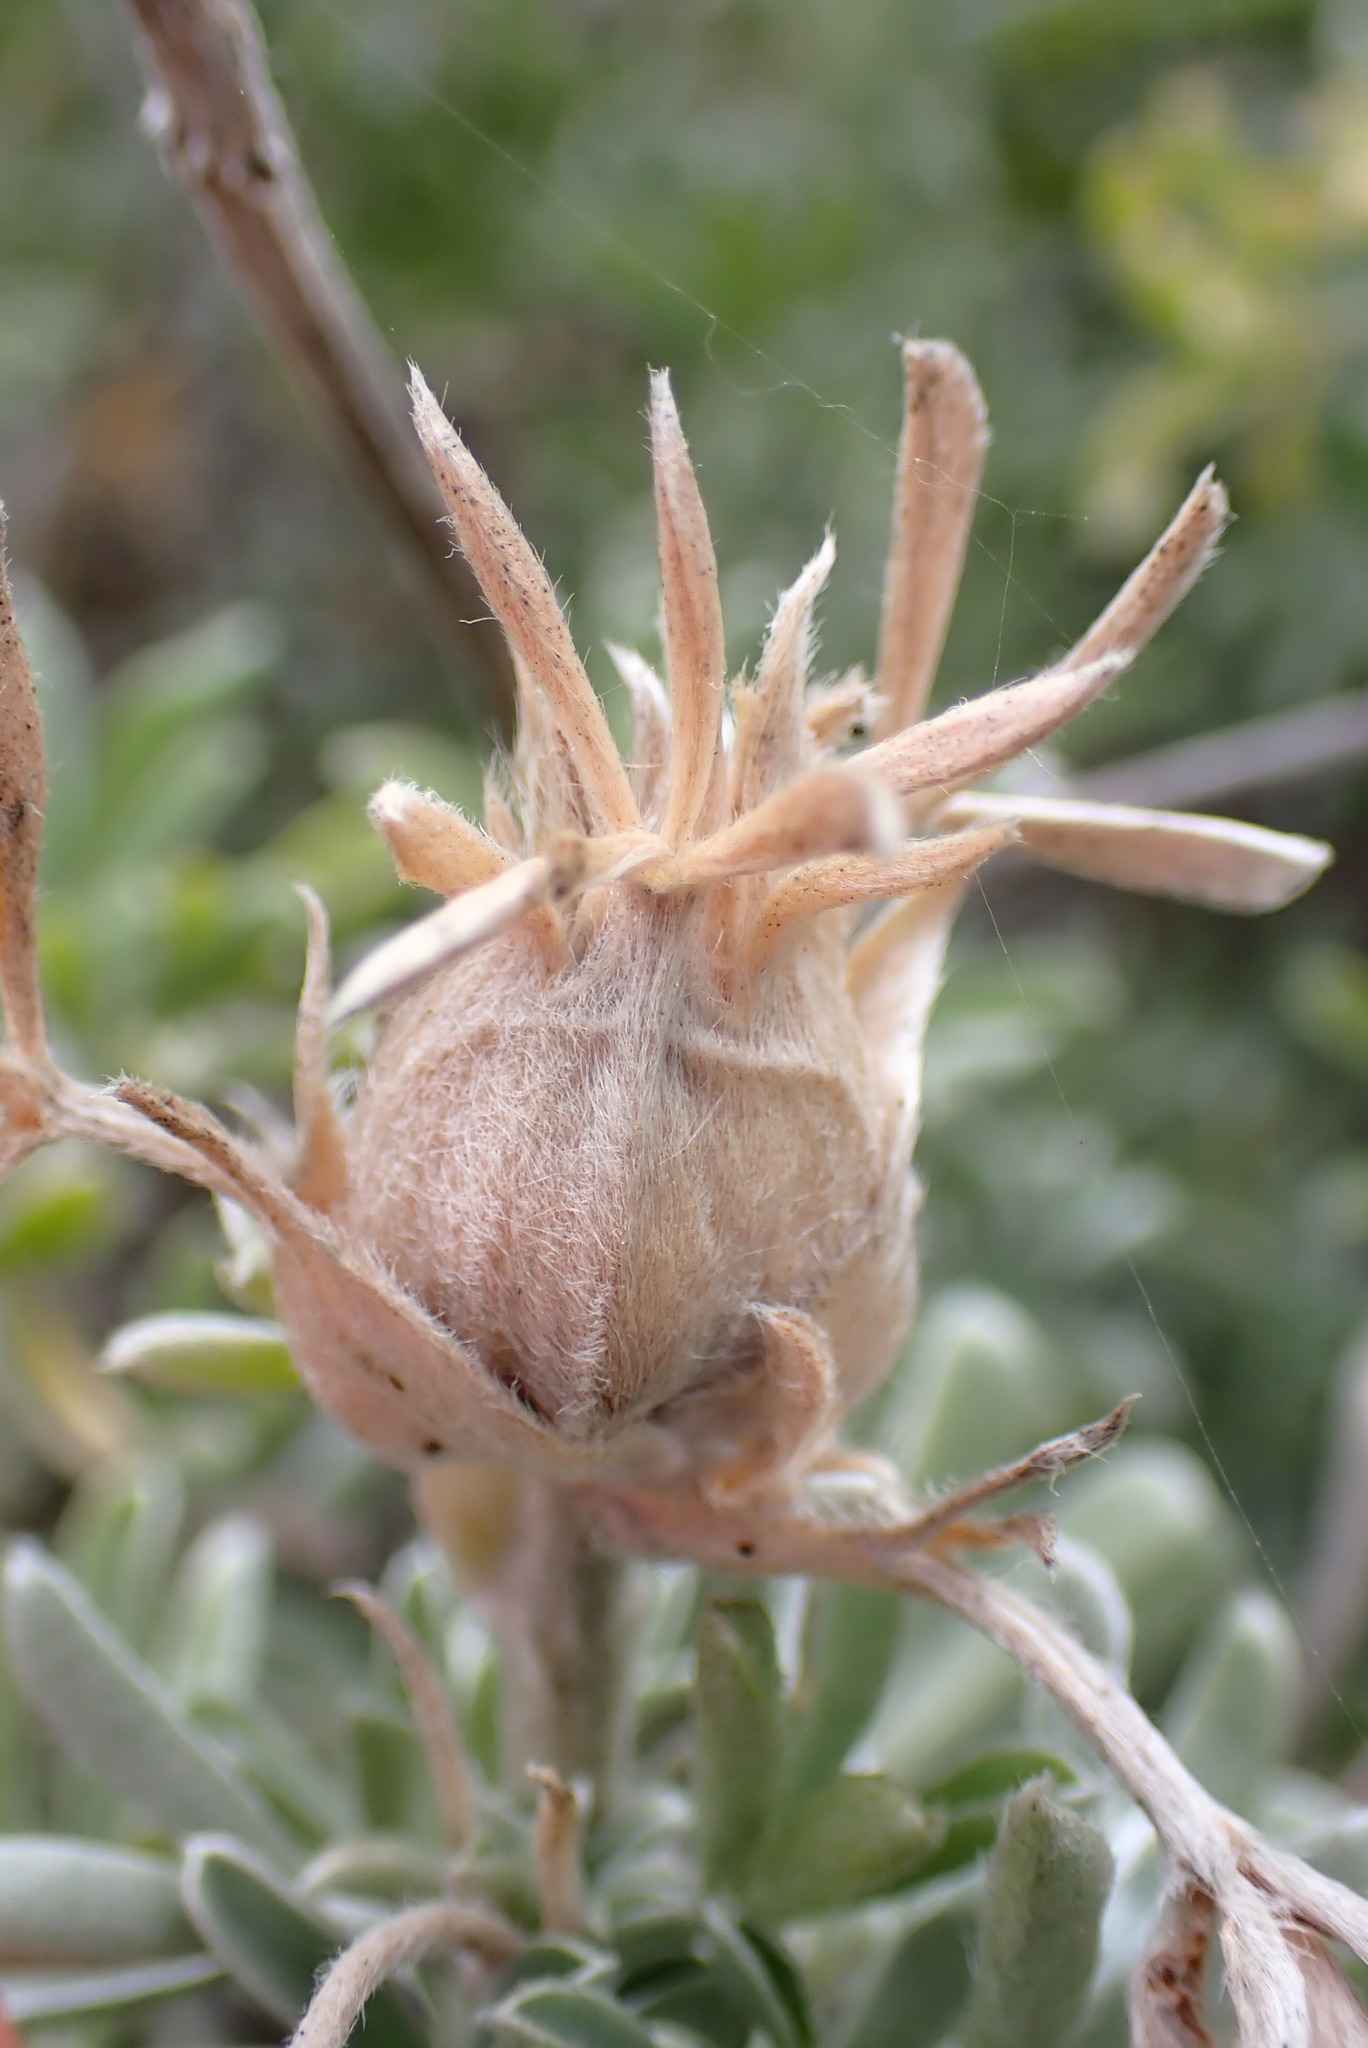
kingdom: Animalia
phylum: Arthropoda
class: Insecta
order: Diptera
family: Cecidomyiidae
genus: Dasineura
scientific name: Dasineura lupini
